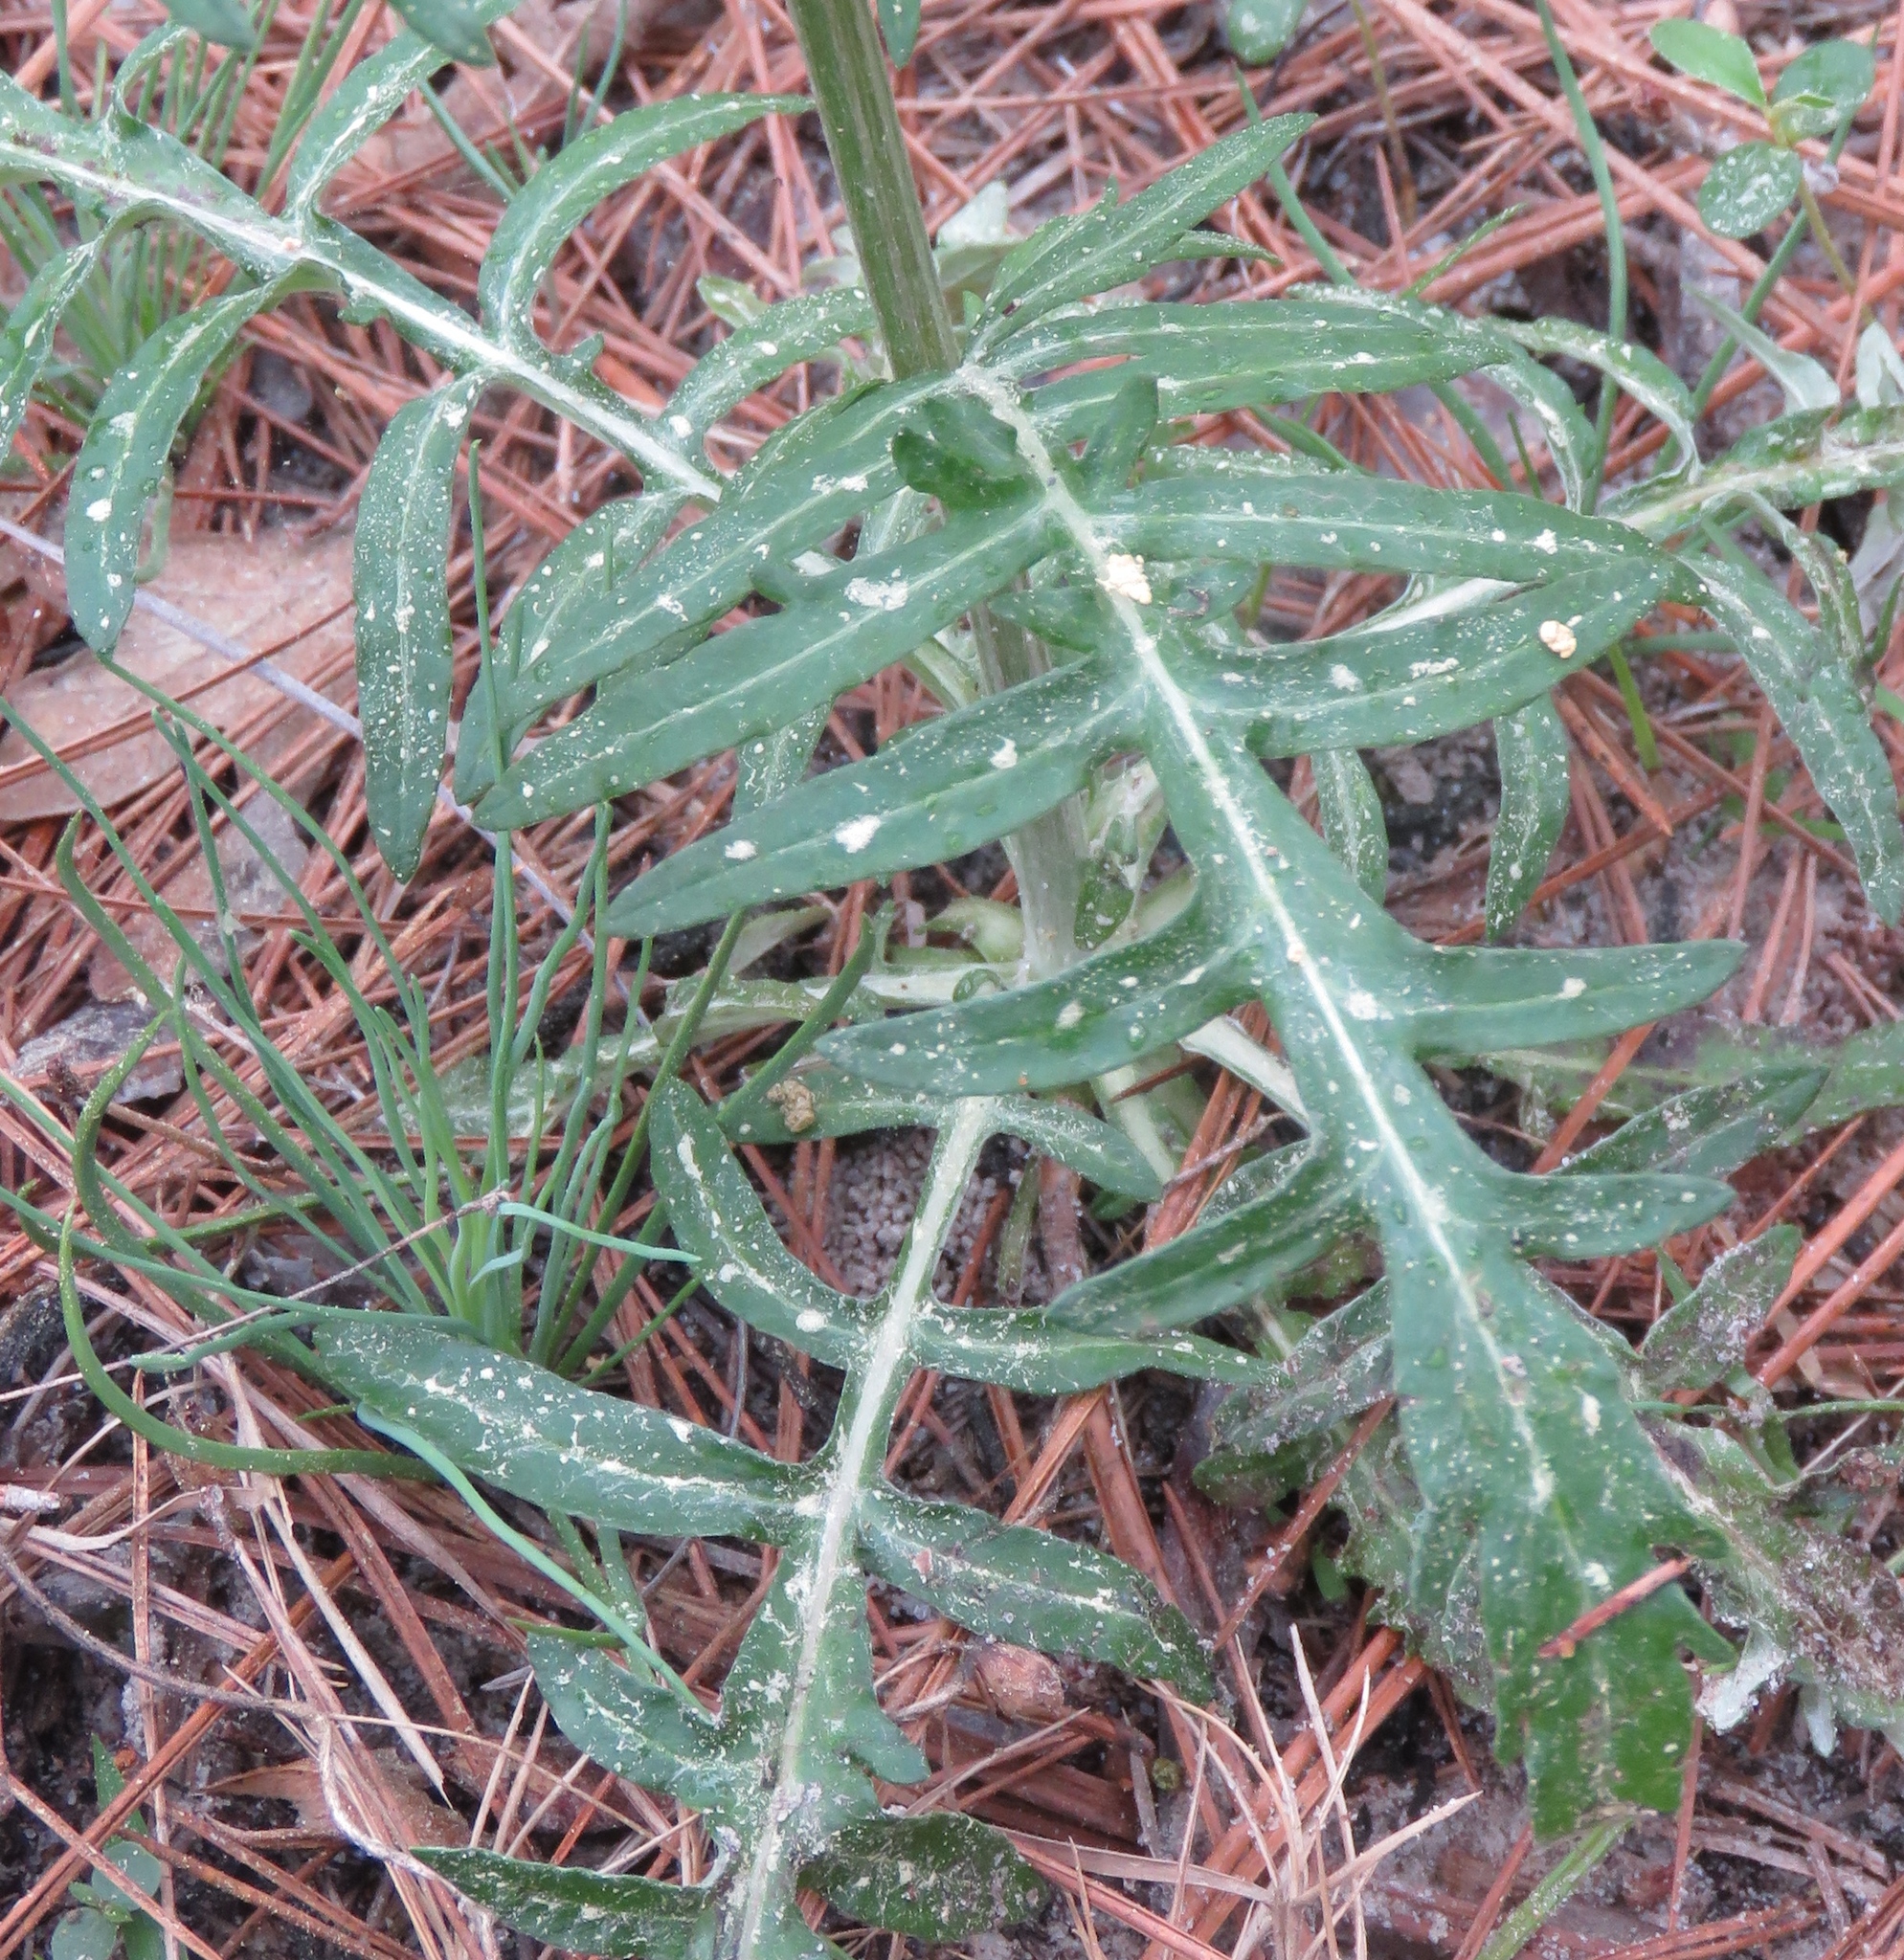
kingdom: Plantae
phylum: Tracheophyta
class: Magnoliopsida
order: Asterales
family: Asteraceae
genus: Hymenopappus
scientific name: Hymenopappus artemisiifolius
